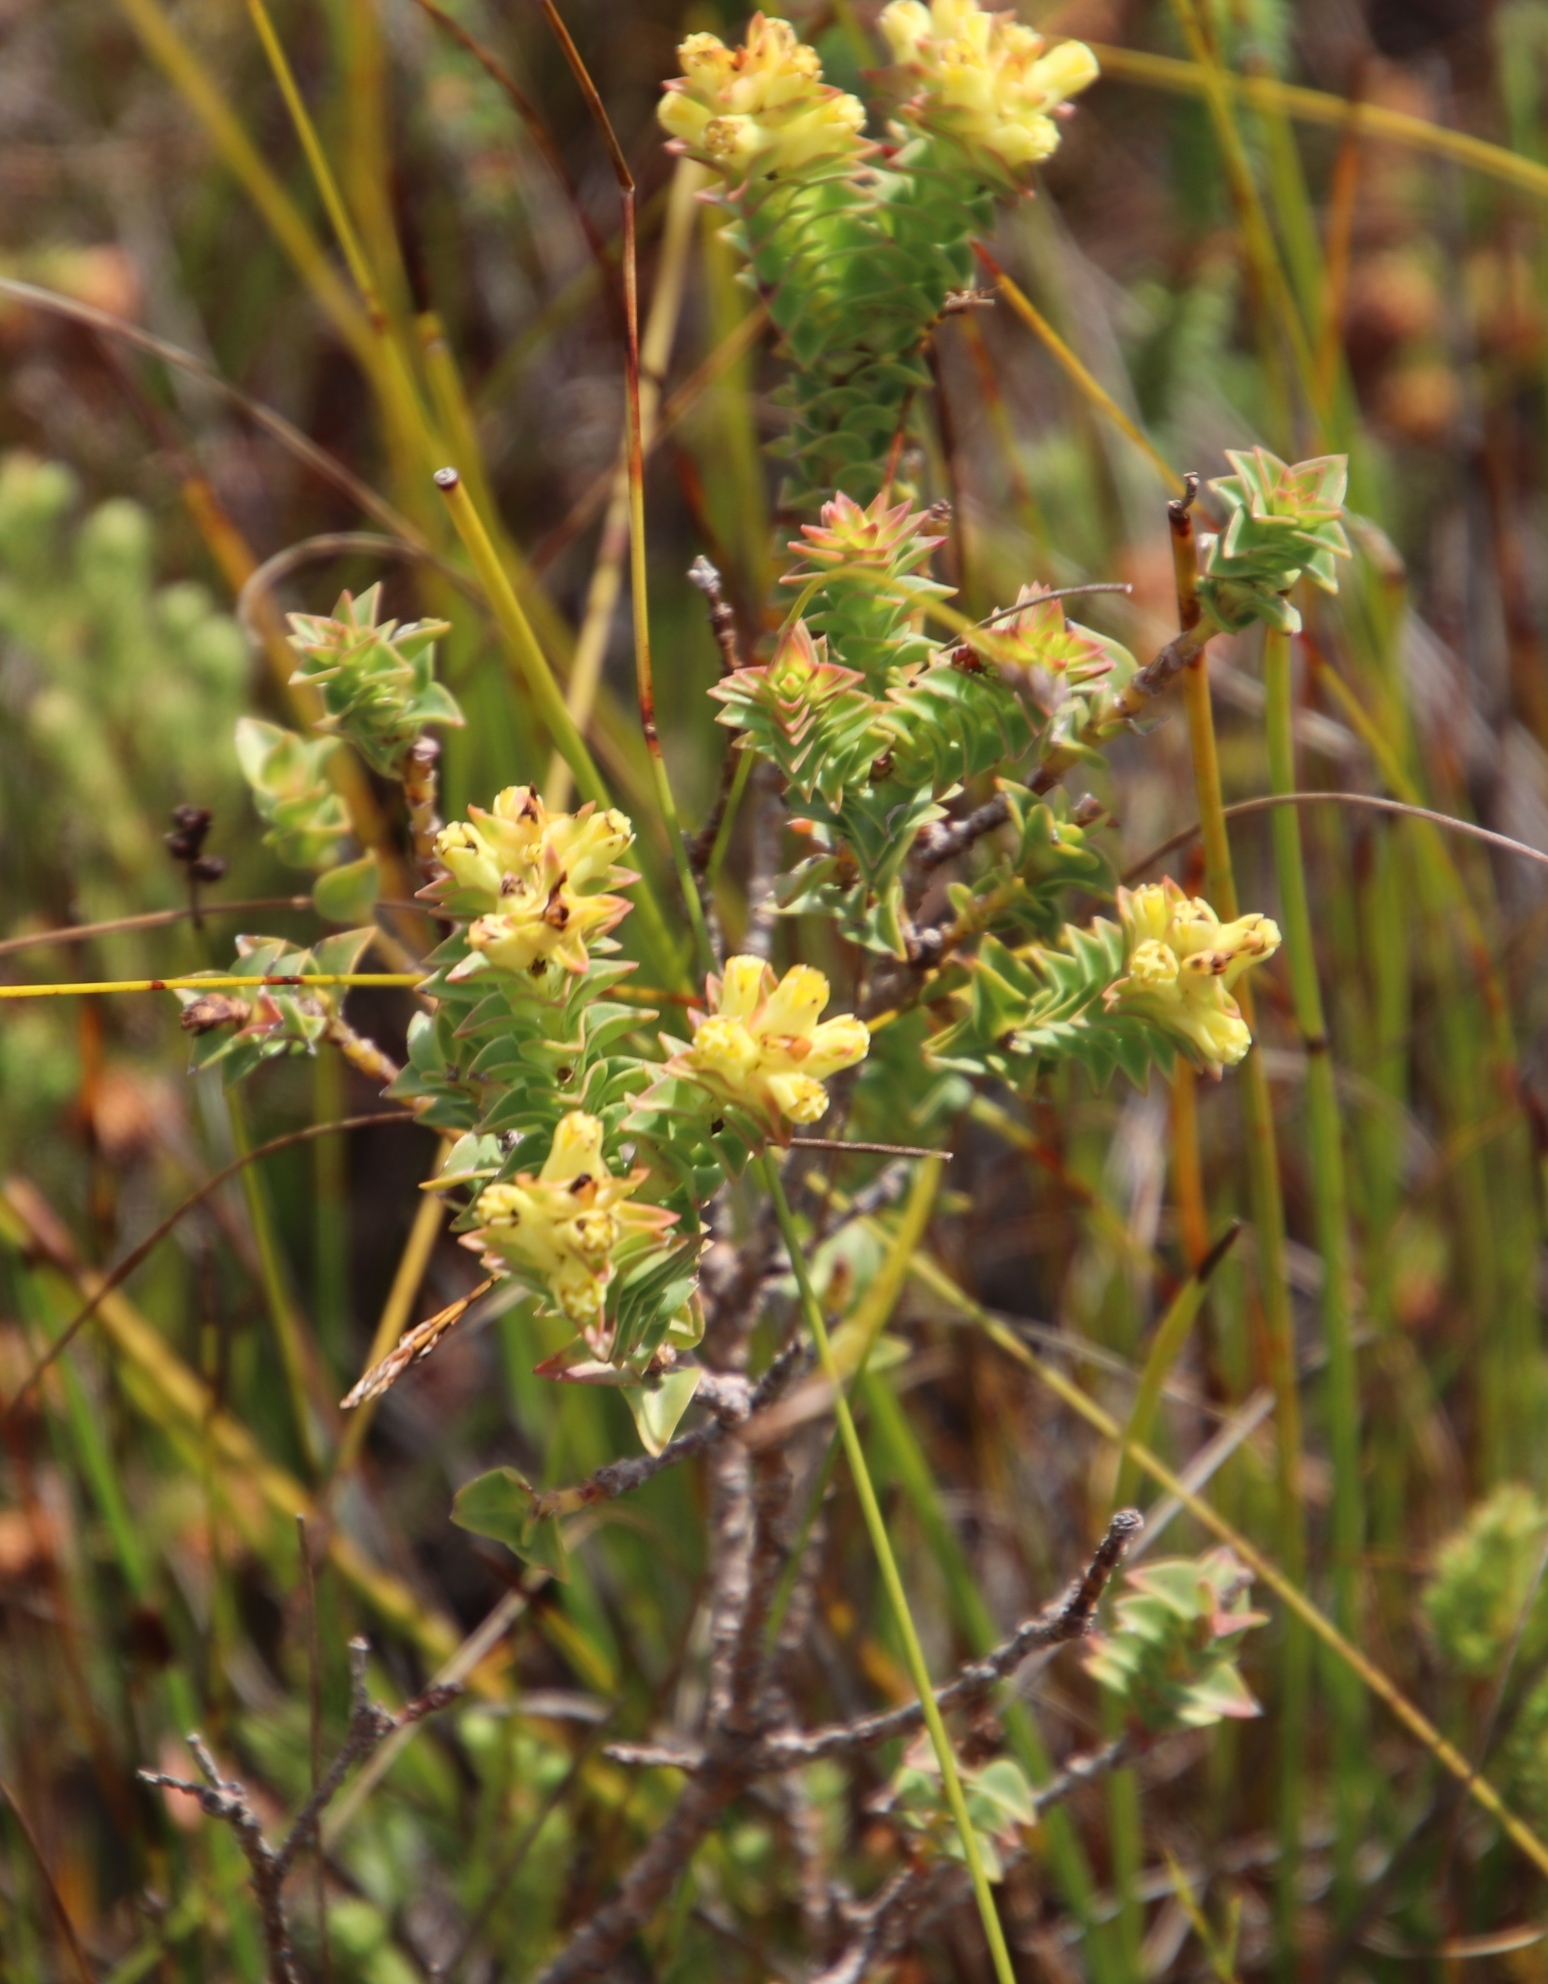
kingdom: Plantae
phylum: Tracheophyta
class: Magnoliopsida
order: Myrtales
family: Penaeaceae
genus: Penaea
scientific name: Penaea mucronata
